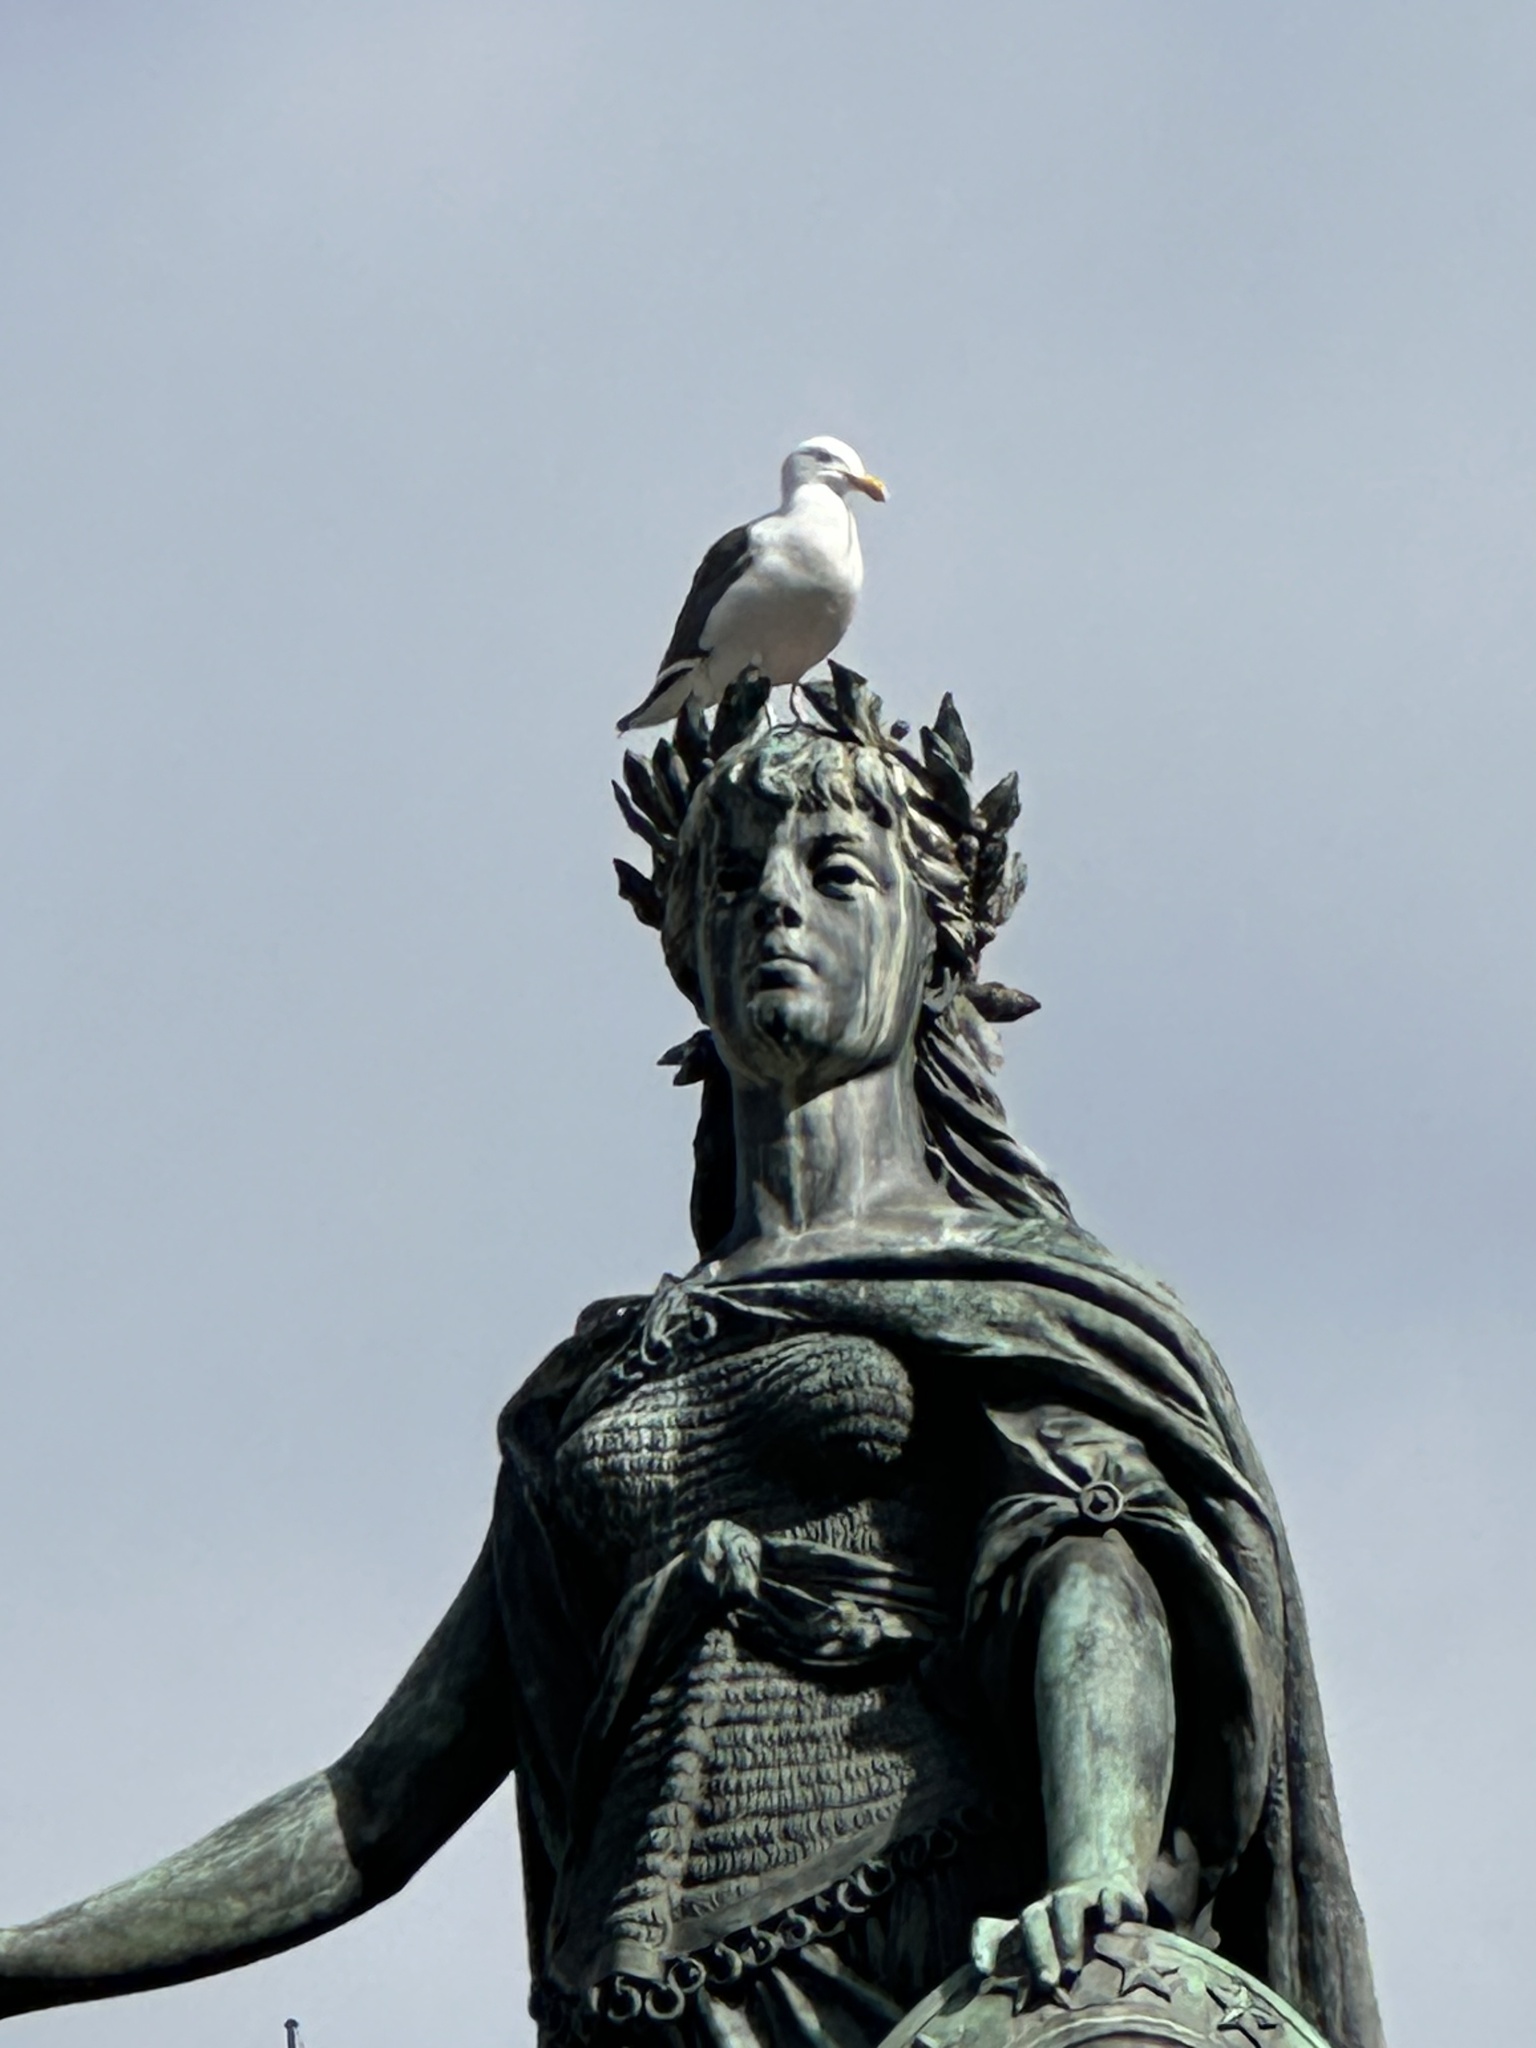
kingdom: Animalia
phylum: Chordata
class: Aves
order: Charadriiformes
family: Laridae
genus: Larus
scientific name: Larus occidentalis
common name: Western gull
